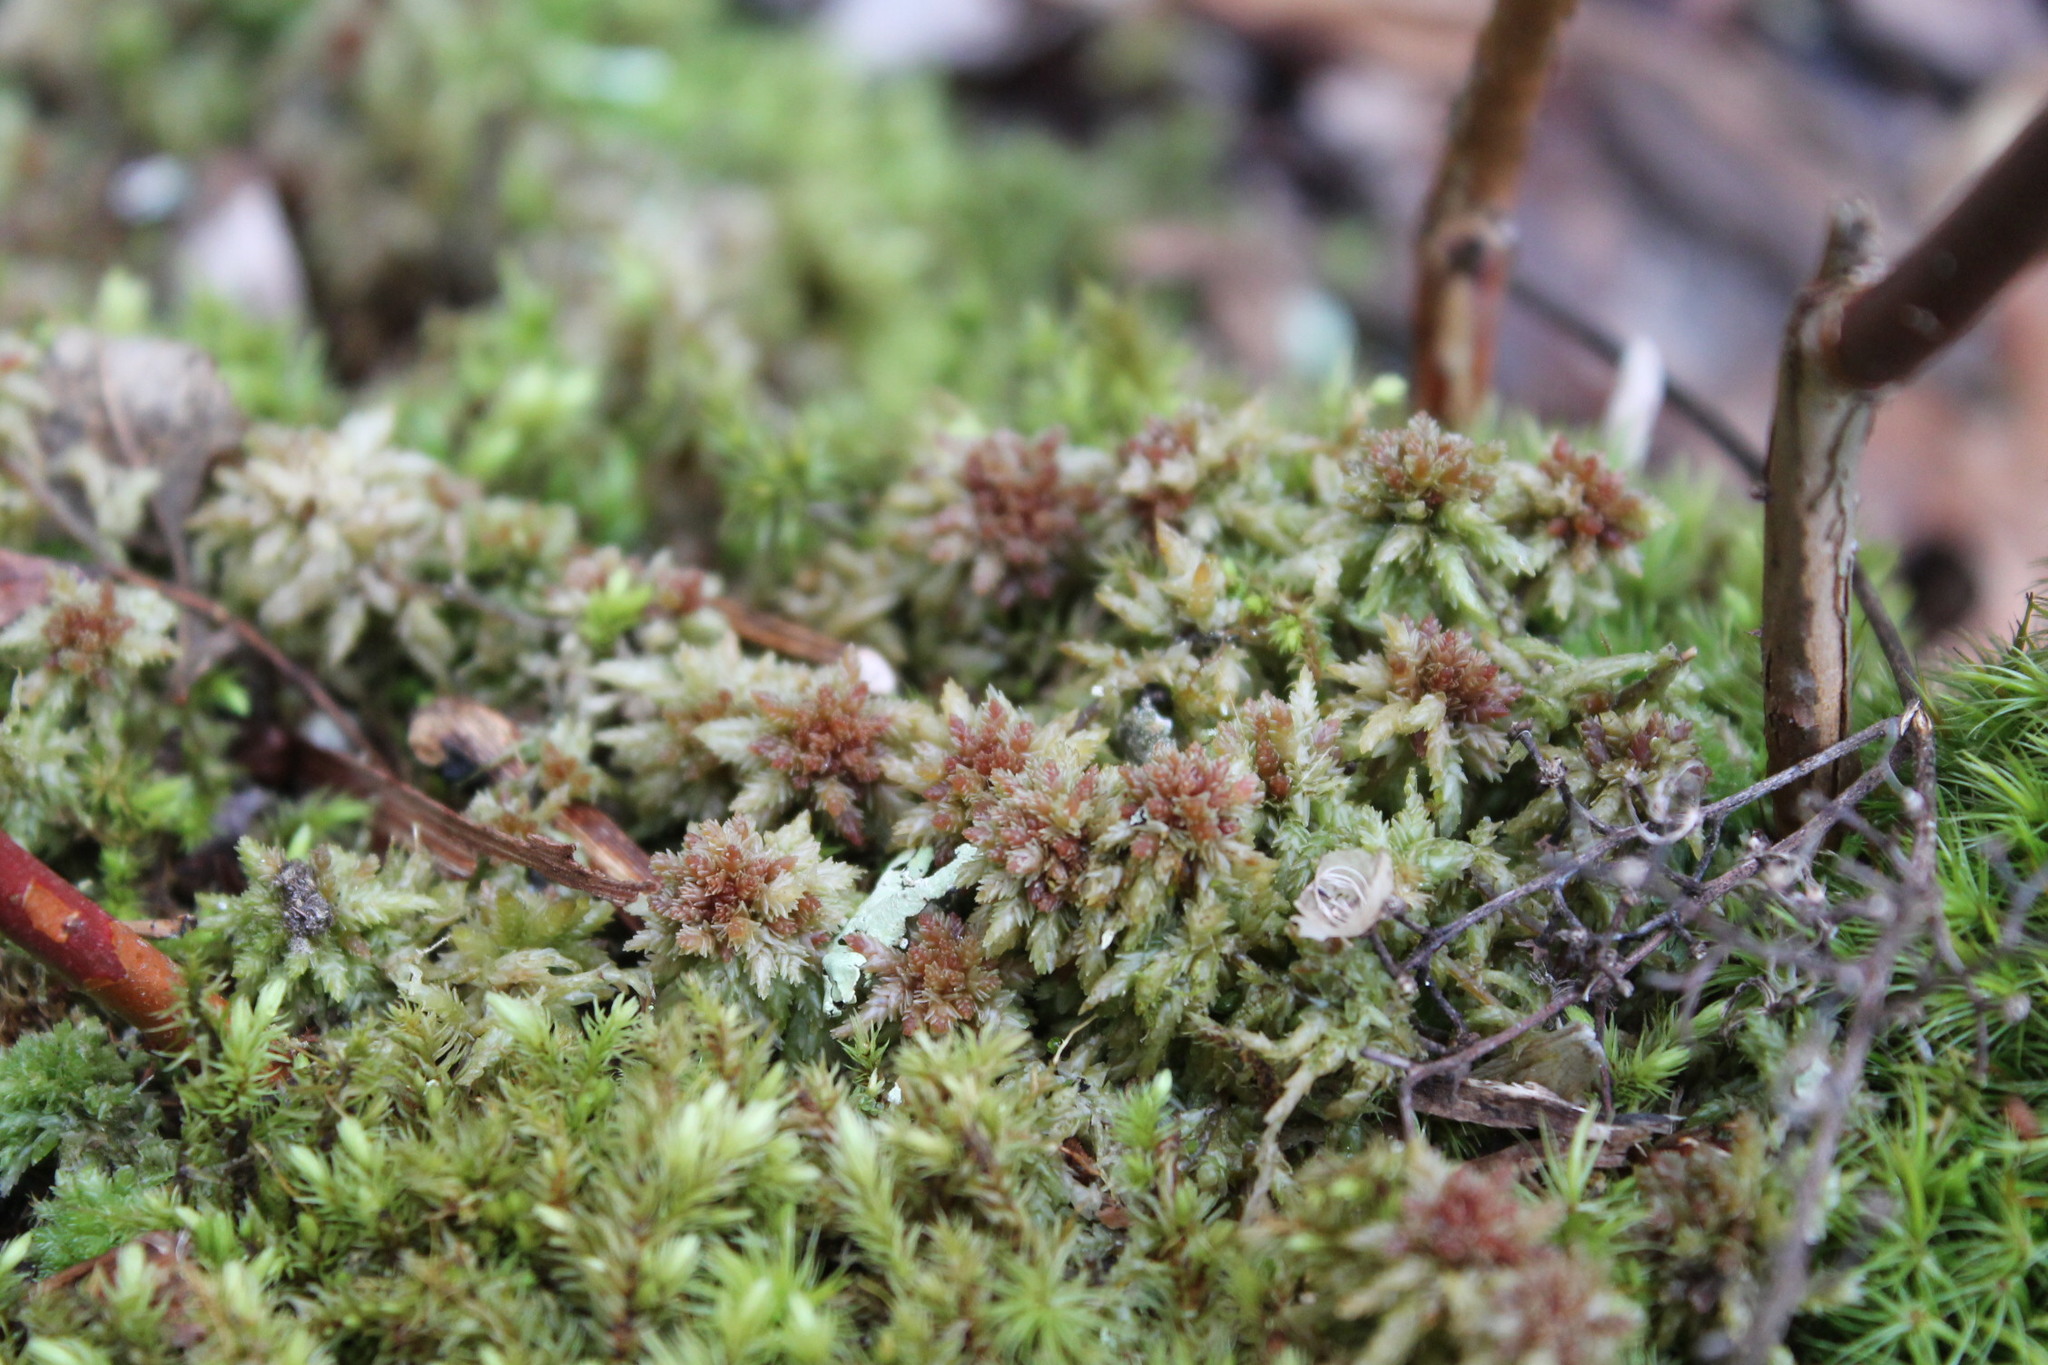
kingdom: Plantae
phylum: Bryophyta
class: Sphagnopsida
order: Sphagnales
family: Sphagnaceae
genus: Sphagnum
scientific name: Sphagnum palustre
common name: Blunt-leaved bog-moss
